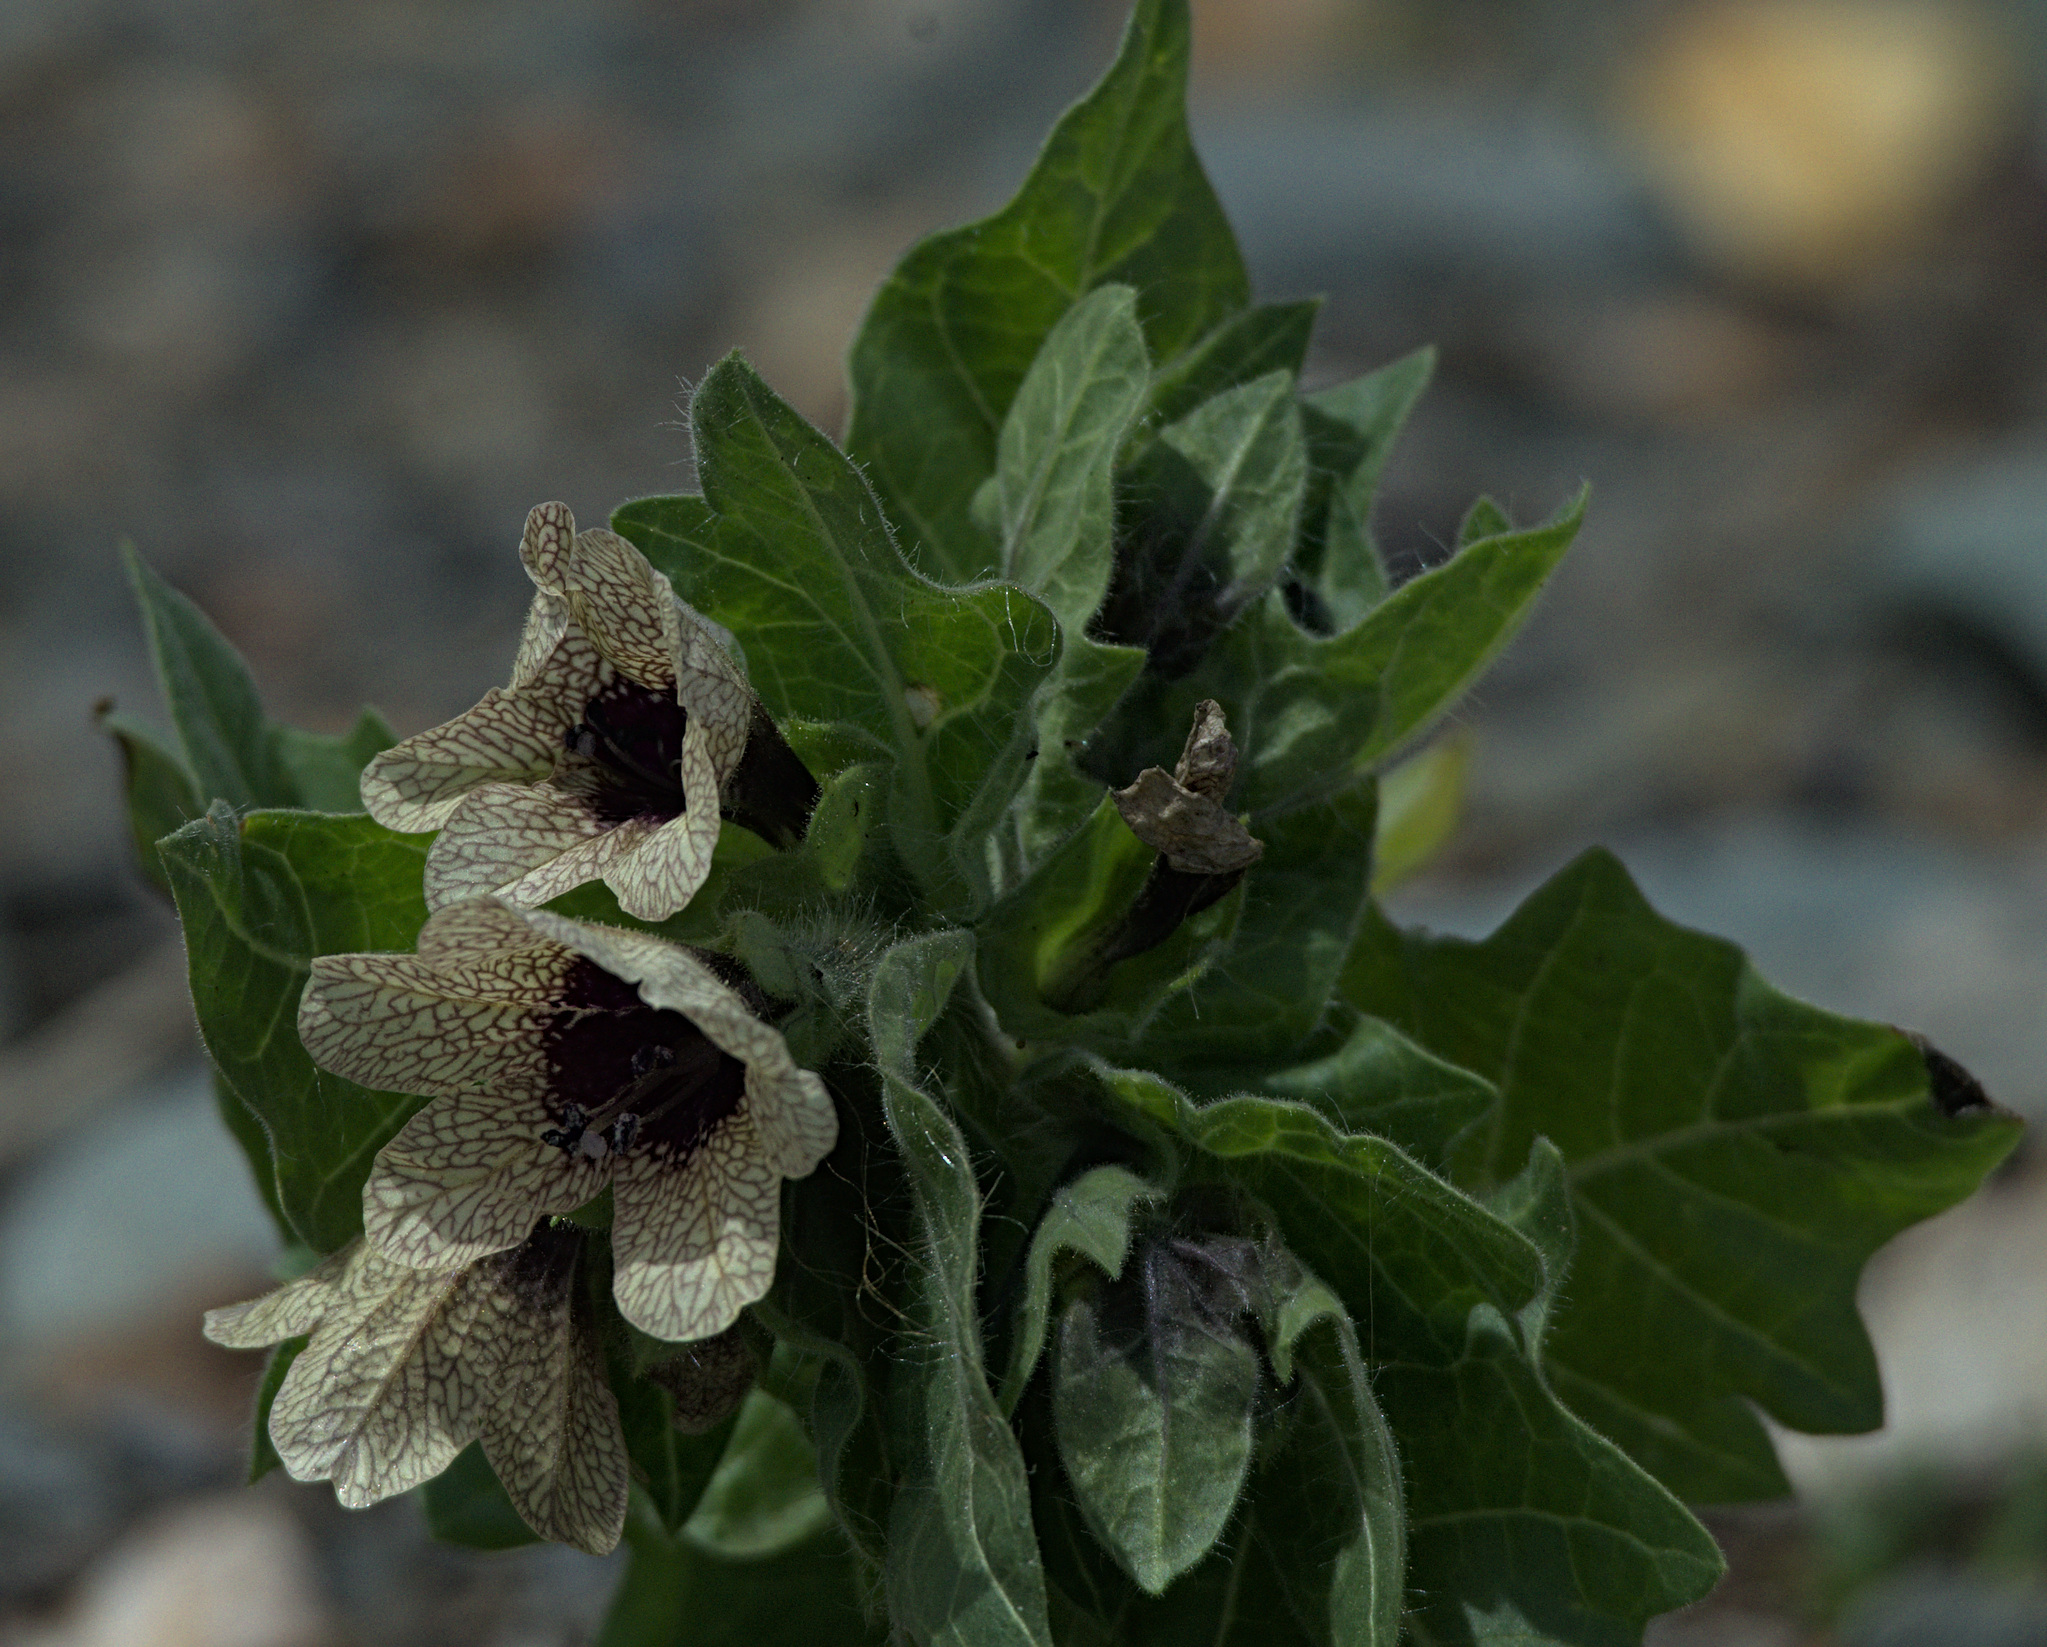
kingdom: Plantae
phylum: Tracheophyta
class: Magnoliopsida
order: Solanales
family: Solanaceae
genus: Hyoscyamus
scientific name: Hyoscyamus niger
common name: Henbane
